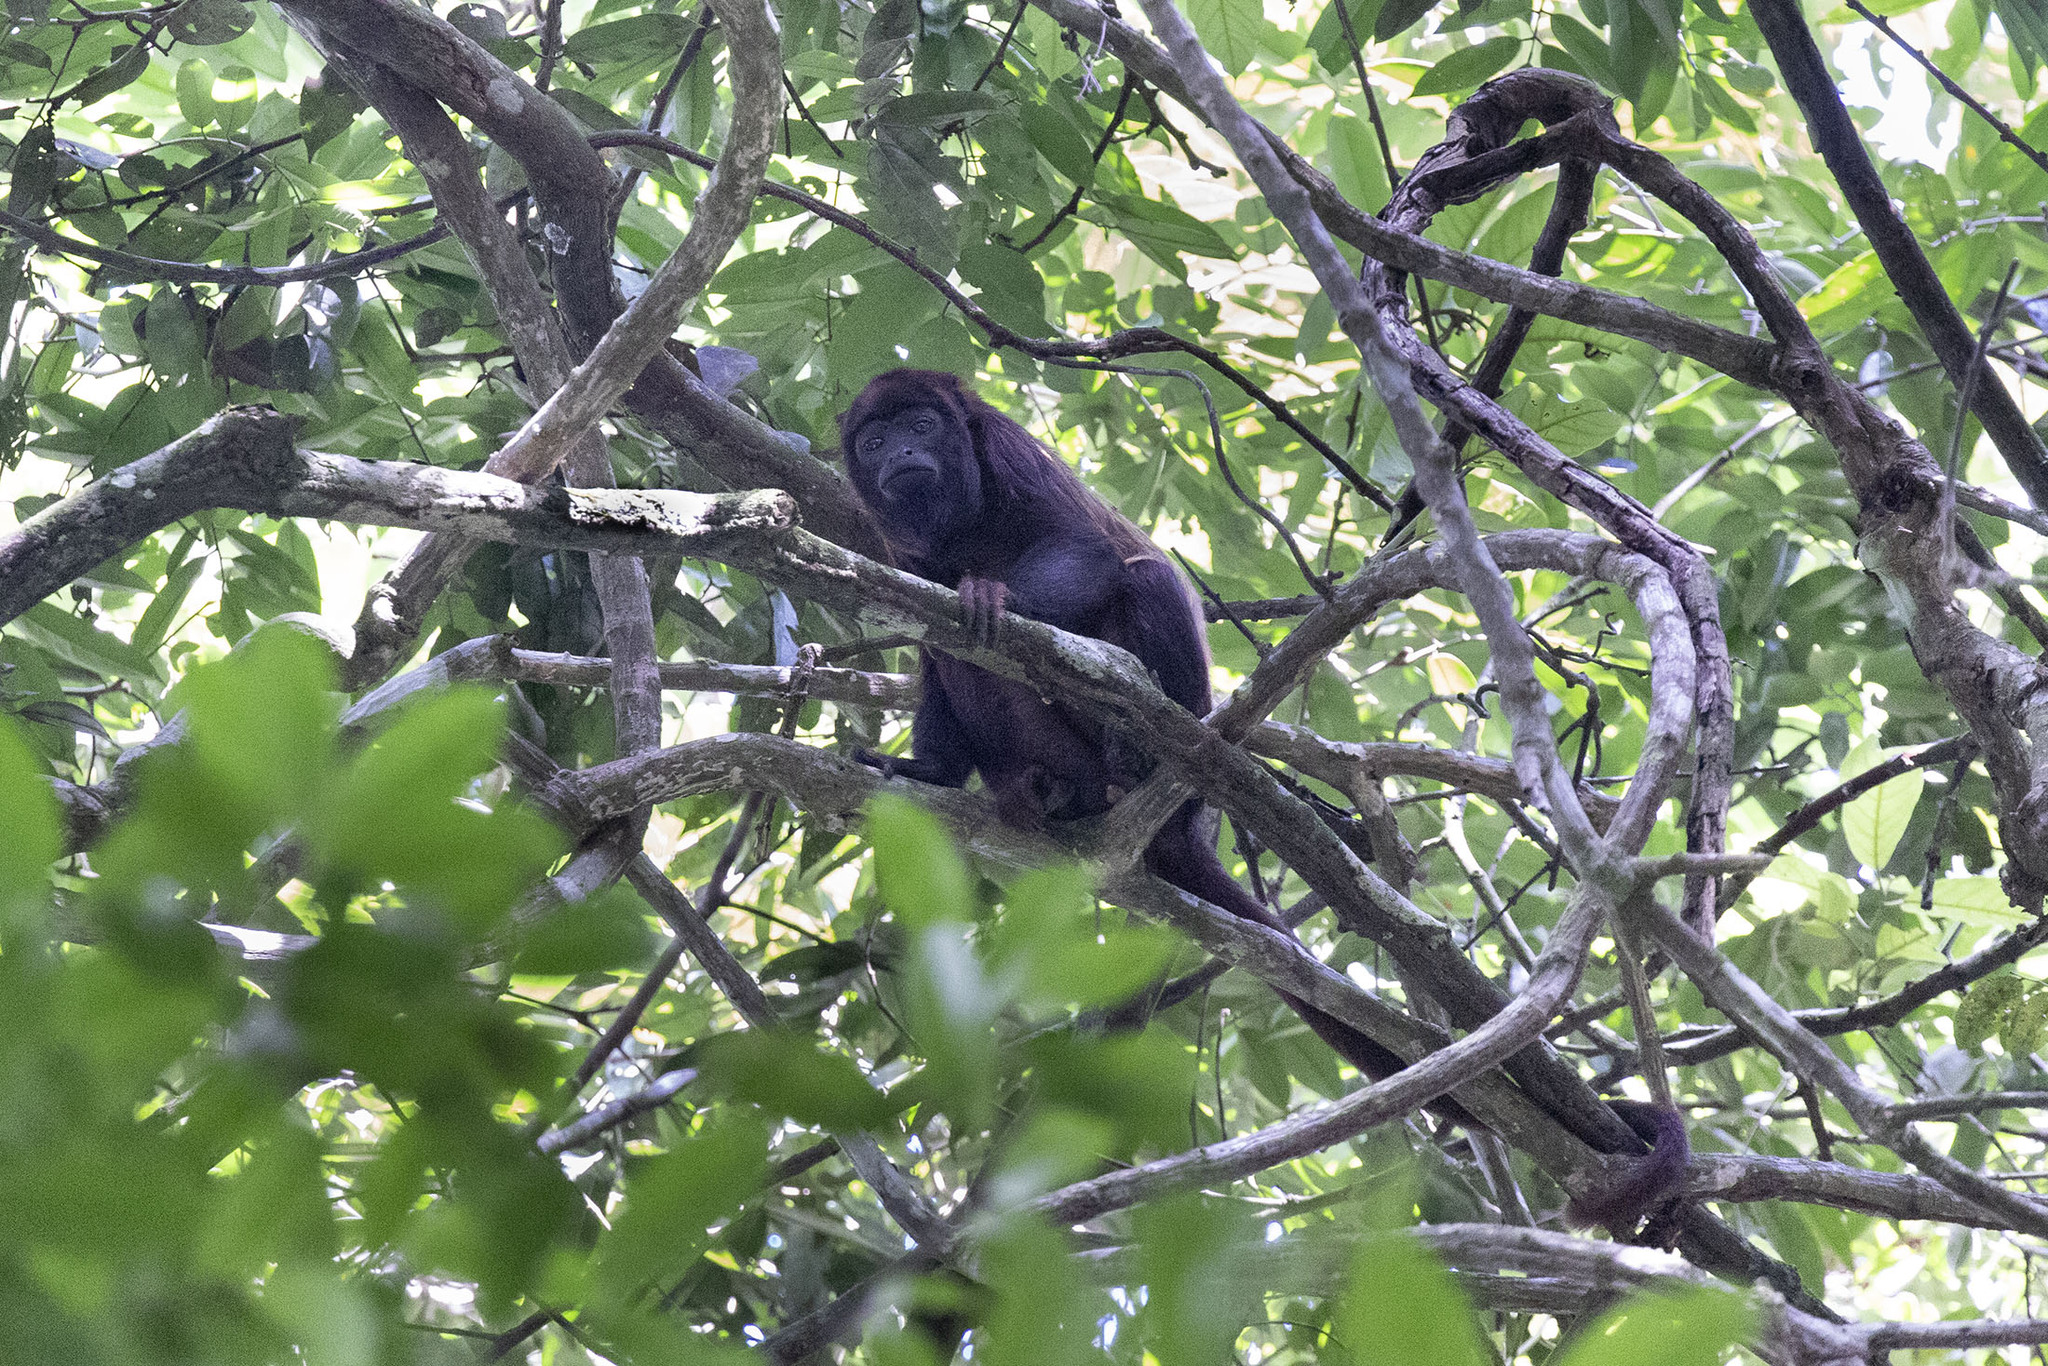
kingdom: Animalia
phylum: Chordata
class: Mammalia
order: Primates
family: Atelidae
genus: Alouatta
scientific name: Alouatta macconnelli
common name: Guyanan red howler
